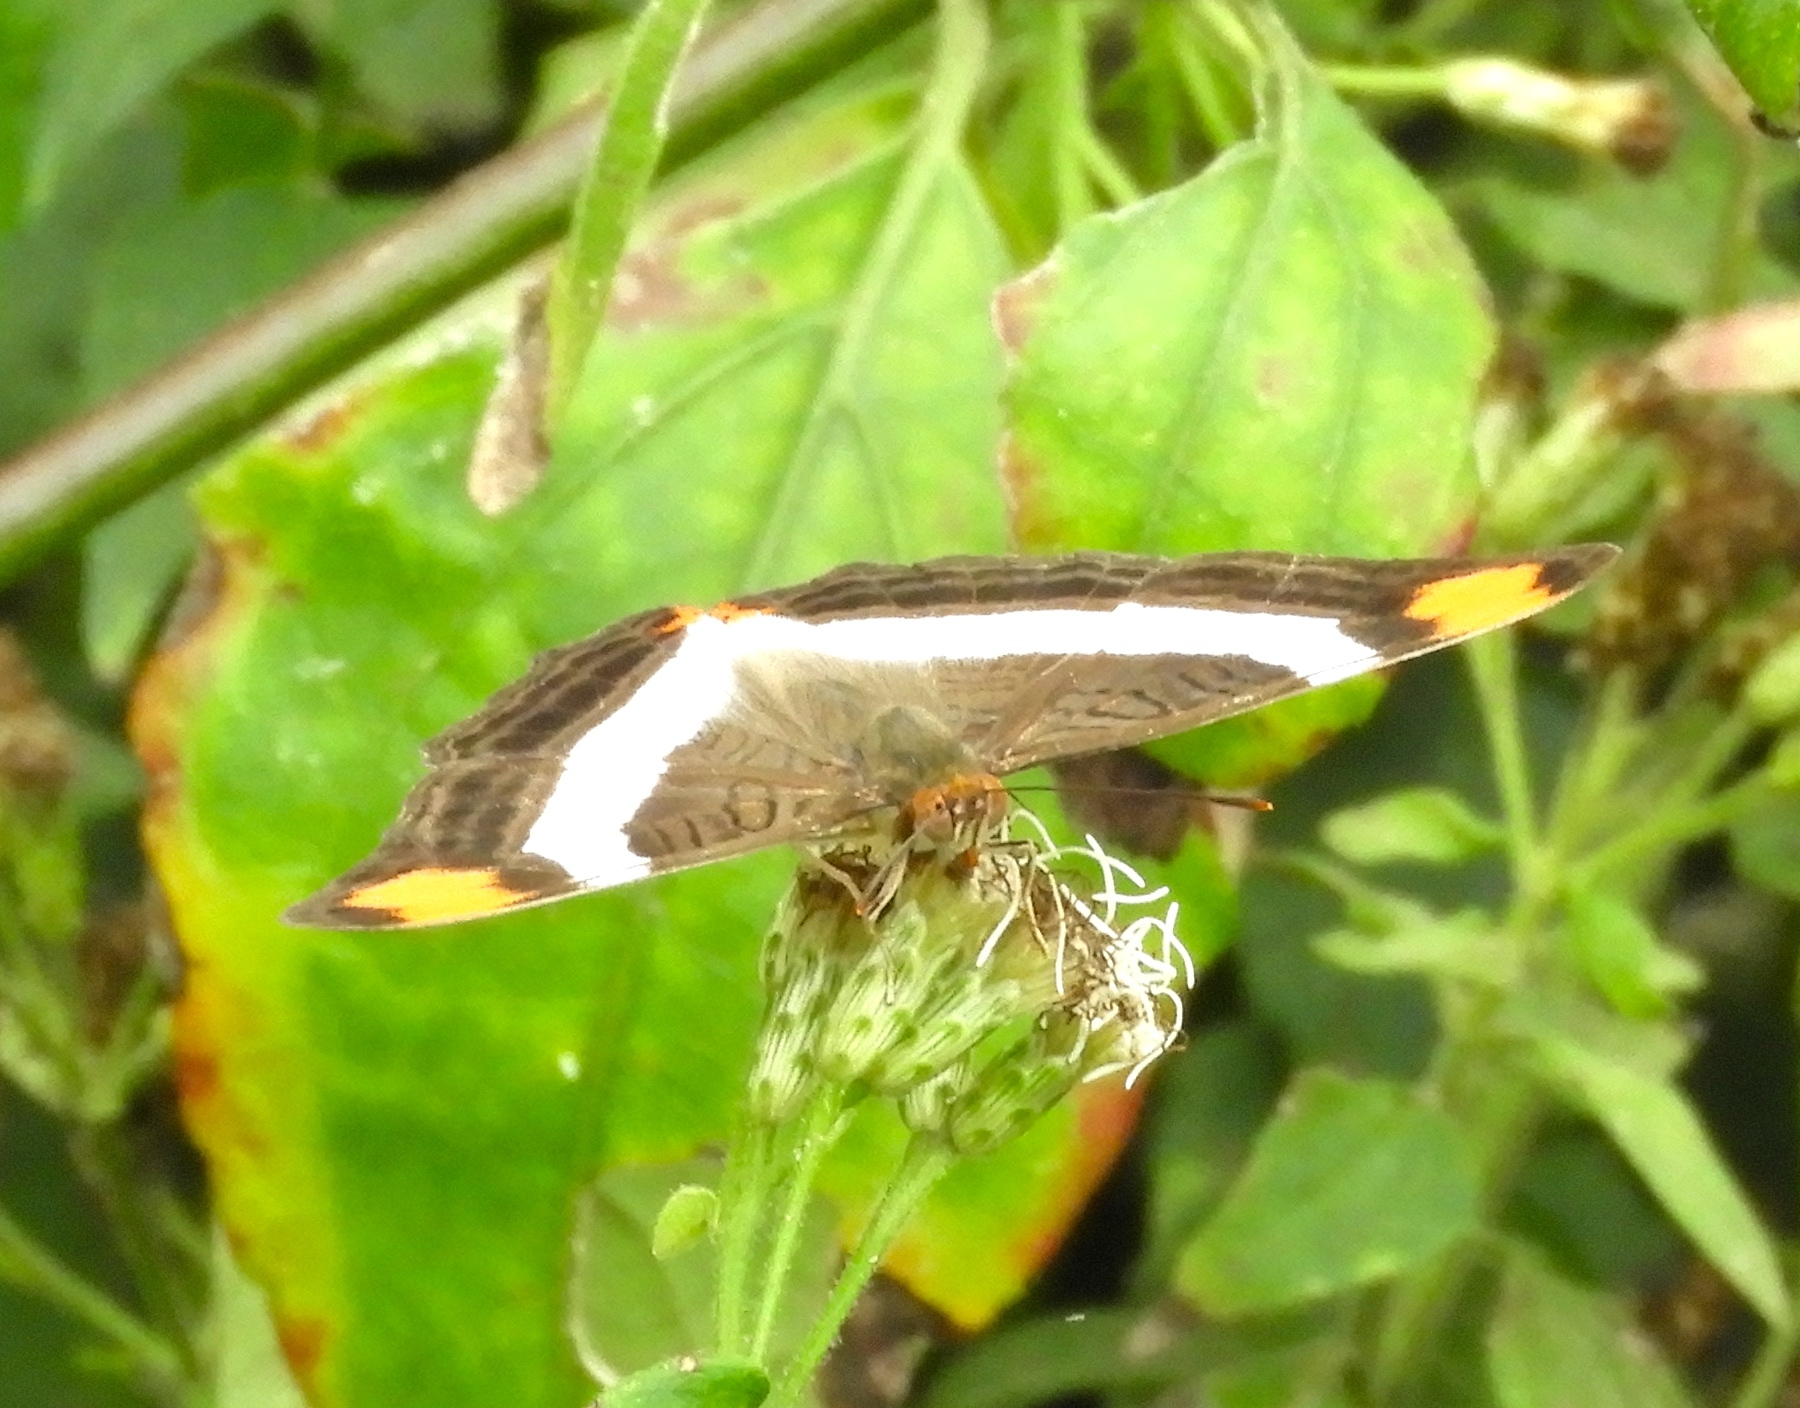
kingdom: Animalia
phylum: Arthropoda
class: Insecta
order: Lepidoptera
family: Nymphalidae
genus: Limenitis
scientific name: Limenitis fessonia
